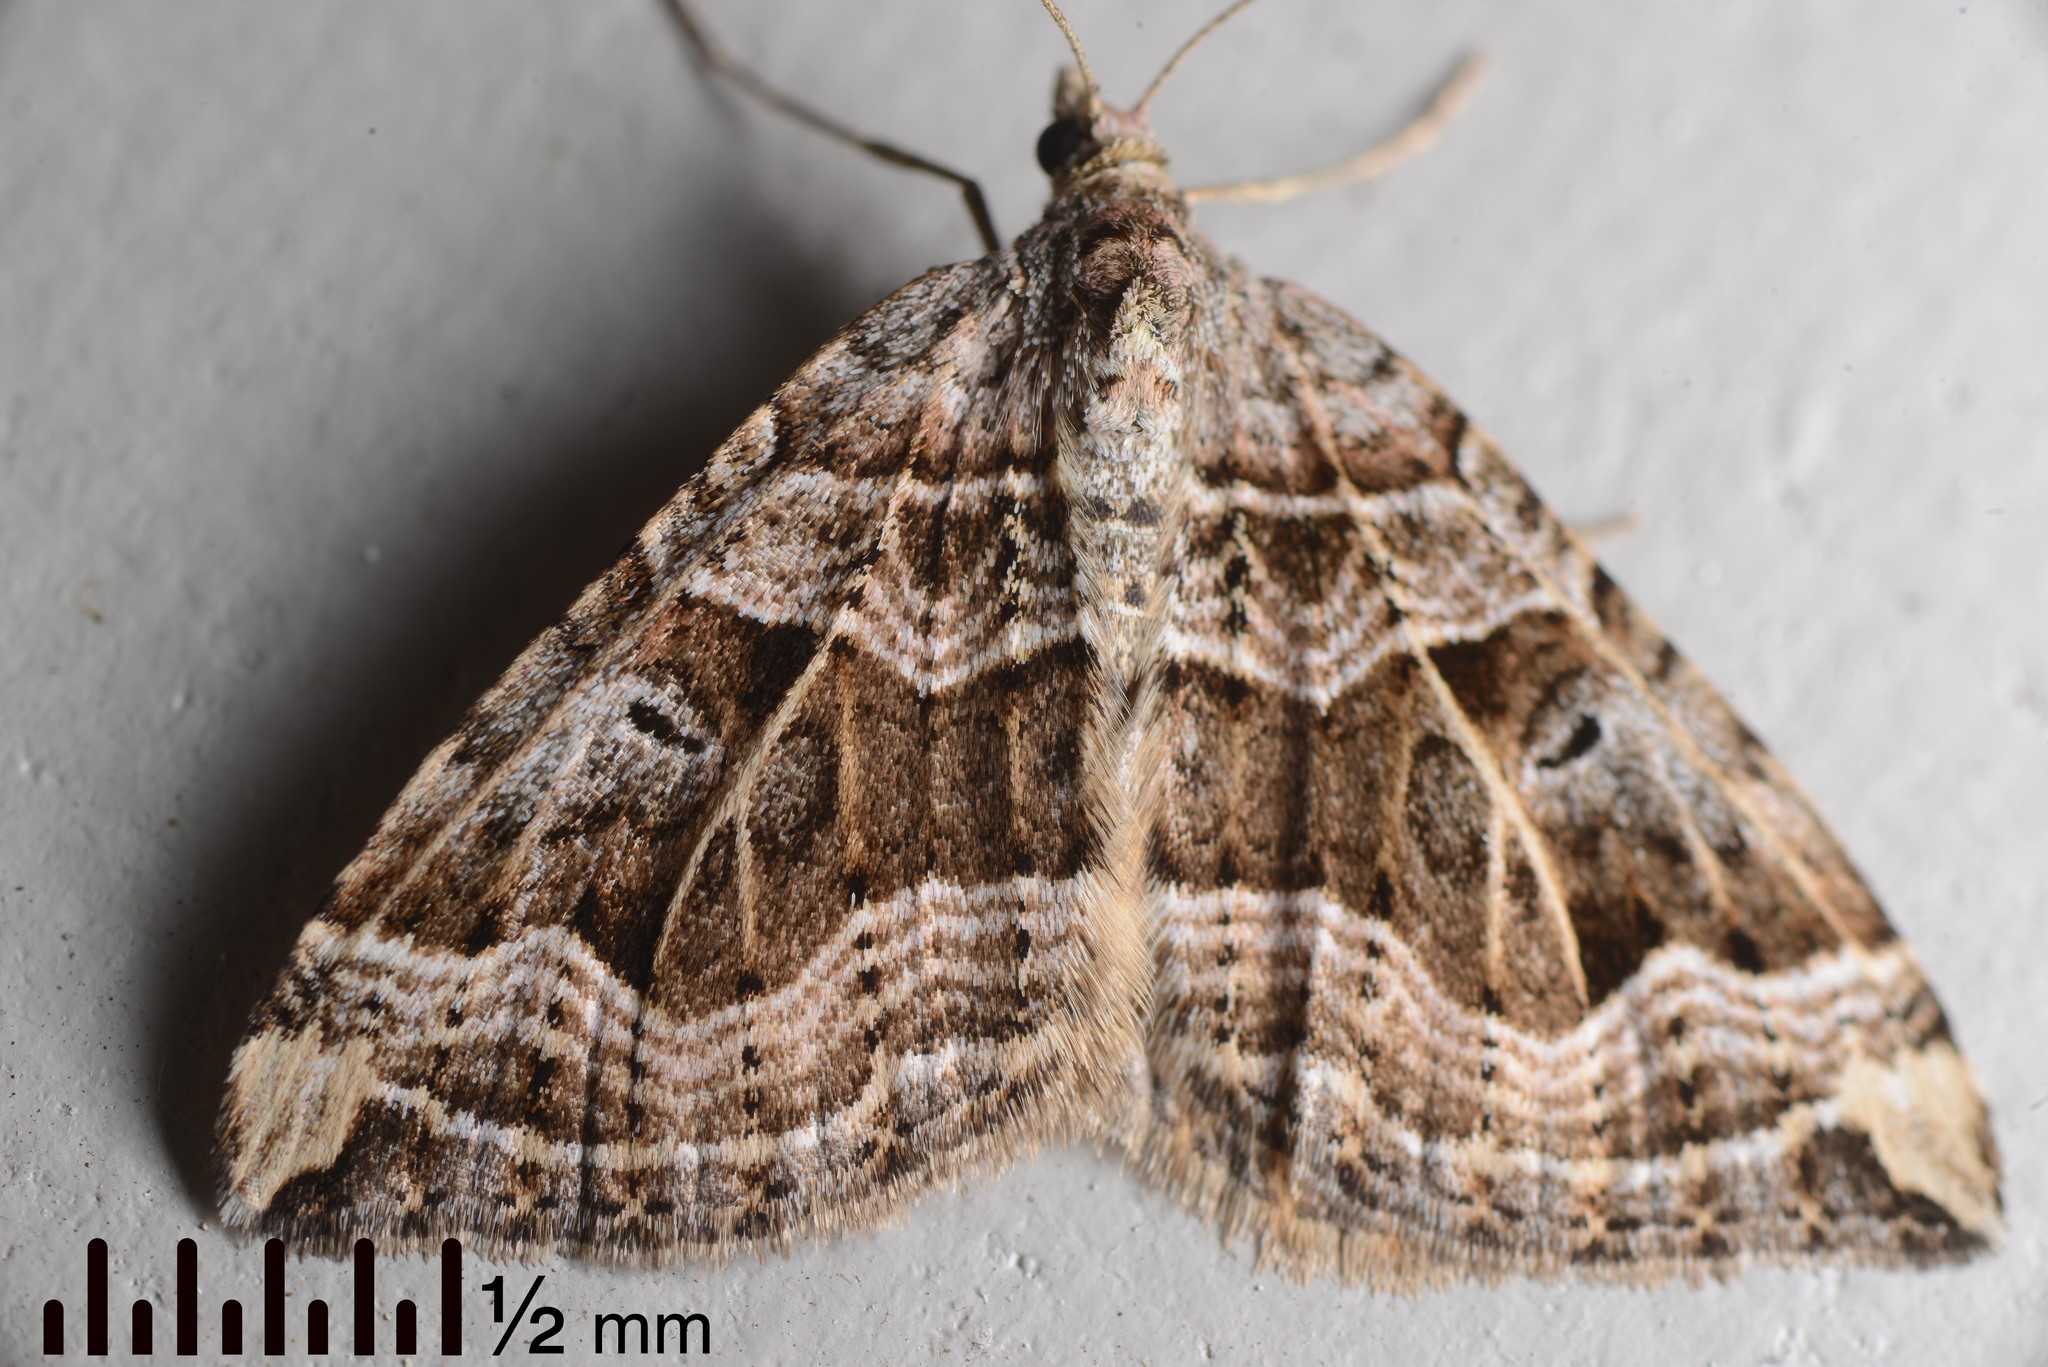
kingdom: Animalia
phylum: Arthropoda
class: Insecta
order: Lepidoptera
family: Geometridae
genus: Xanthorhoe
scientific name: Xanthorhoe semifissata
